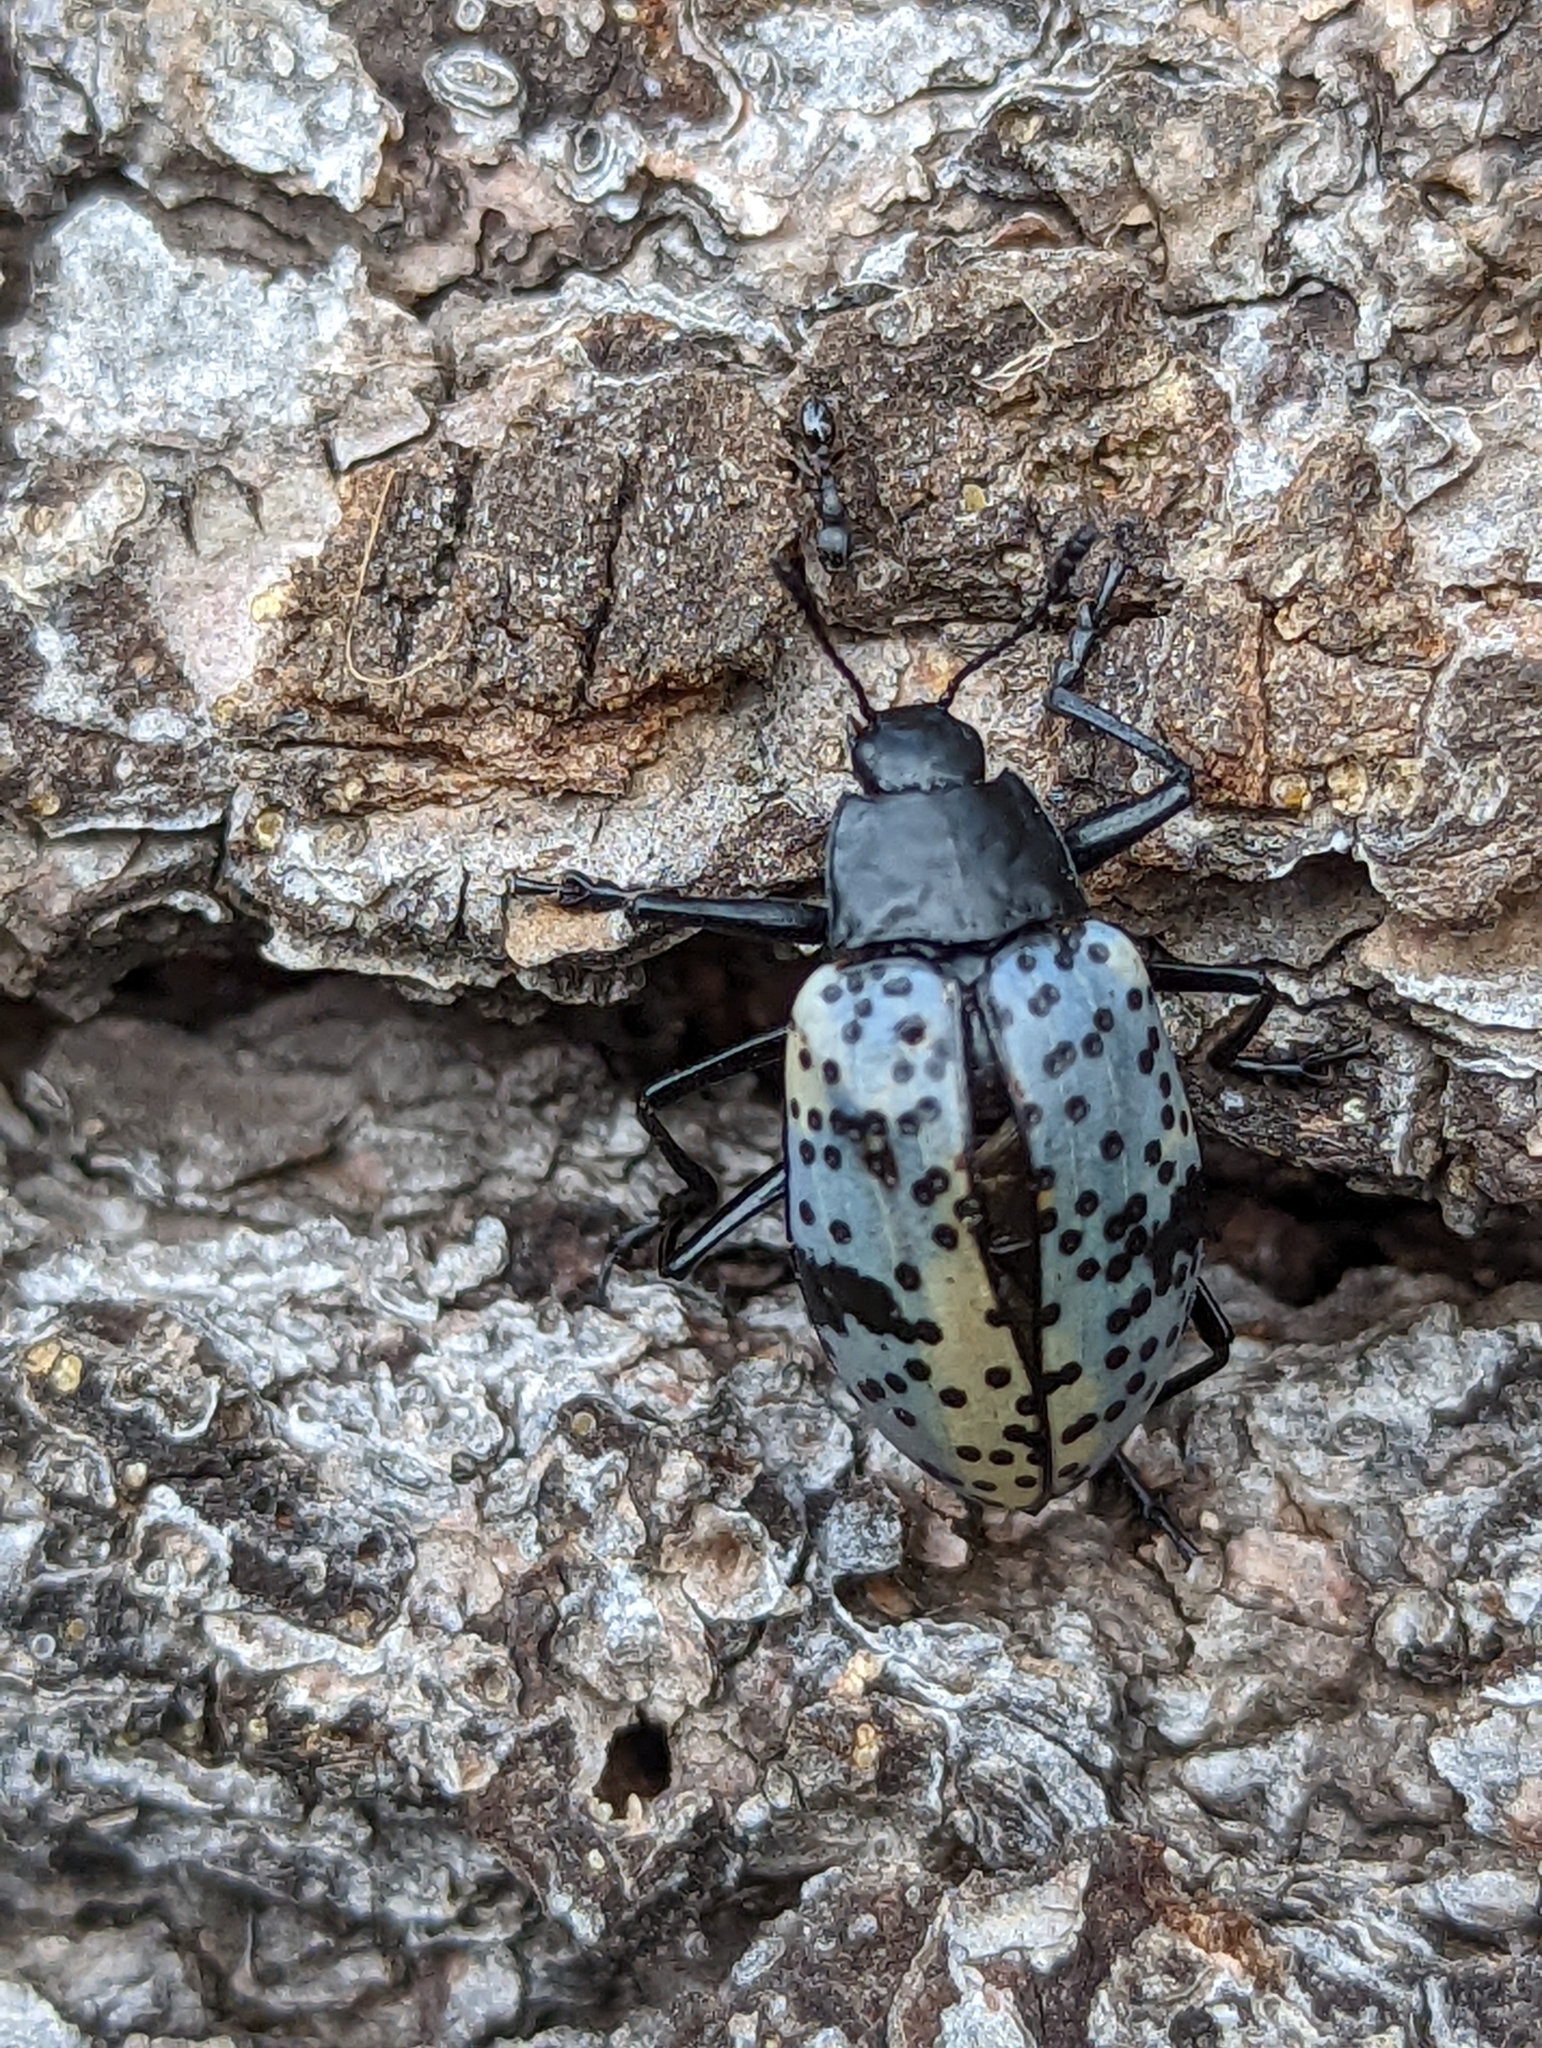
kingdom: Animalia
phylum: Arthropoda
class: Insecta
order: Coleoptera
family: Erotylidae
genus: Gibbifer
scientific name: Gibbifer californicus
